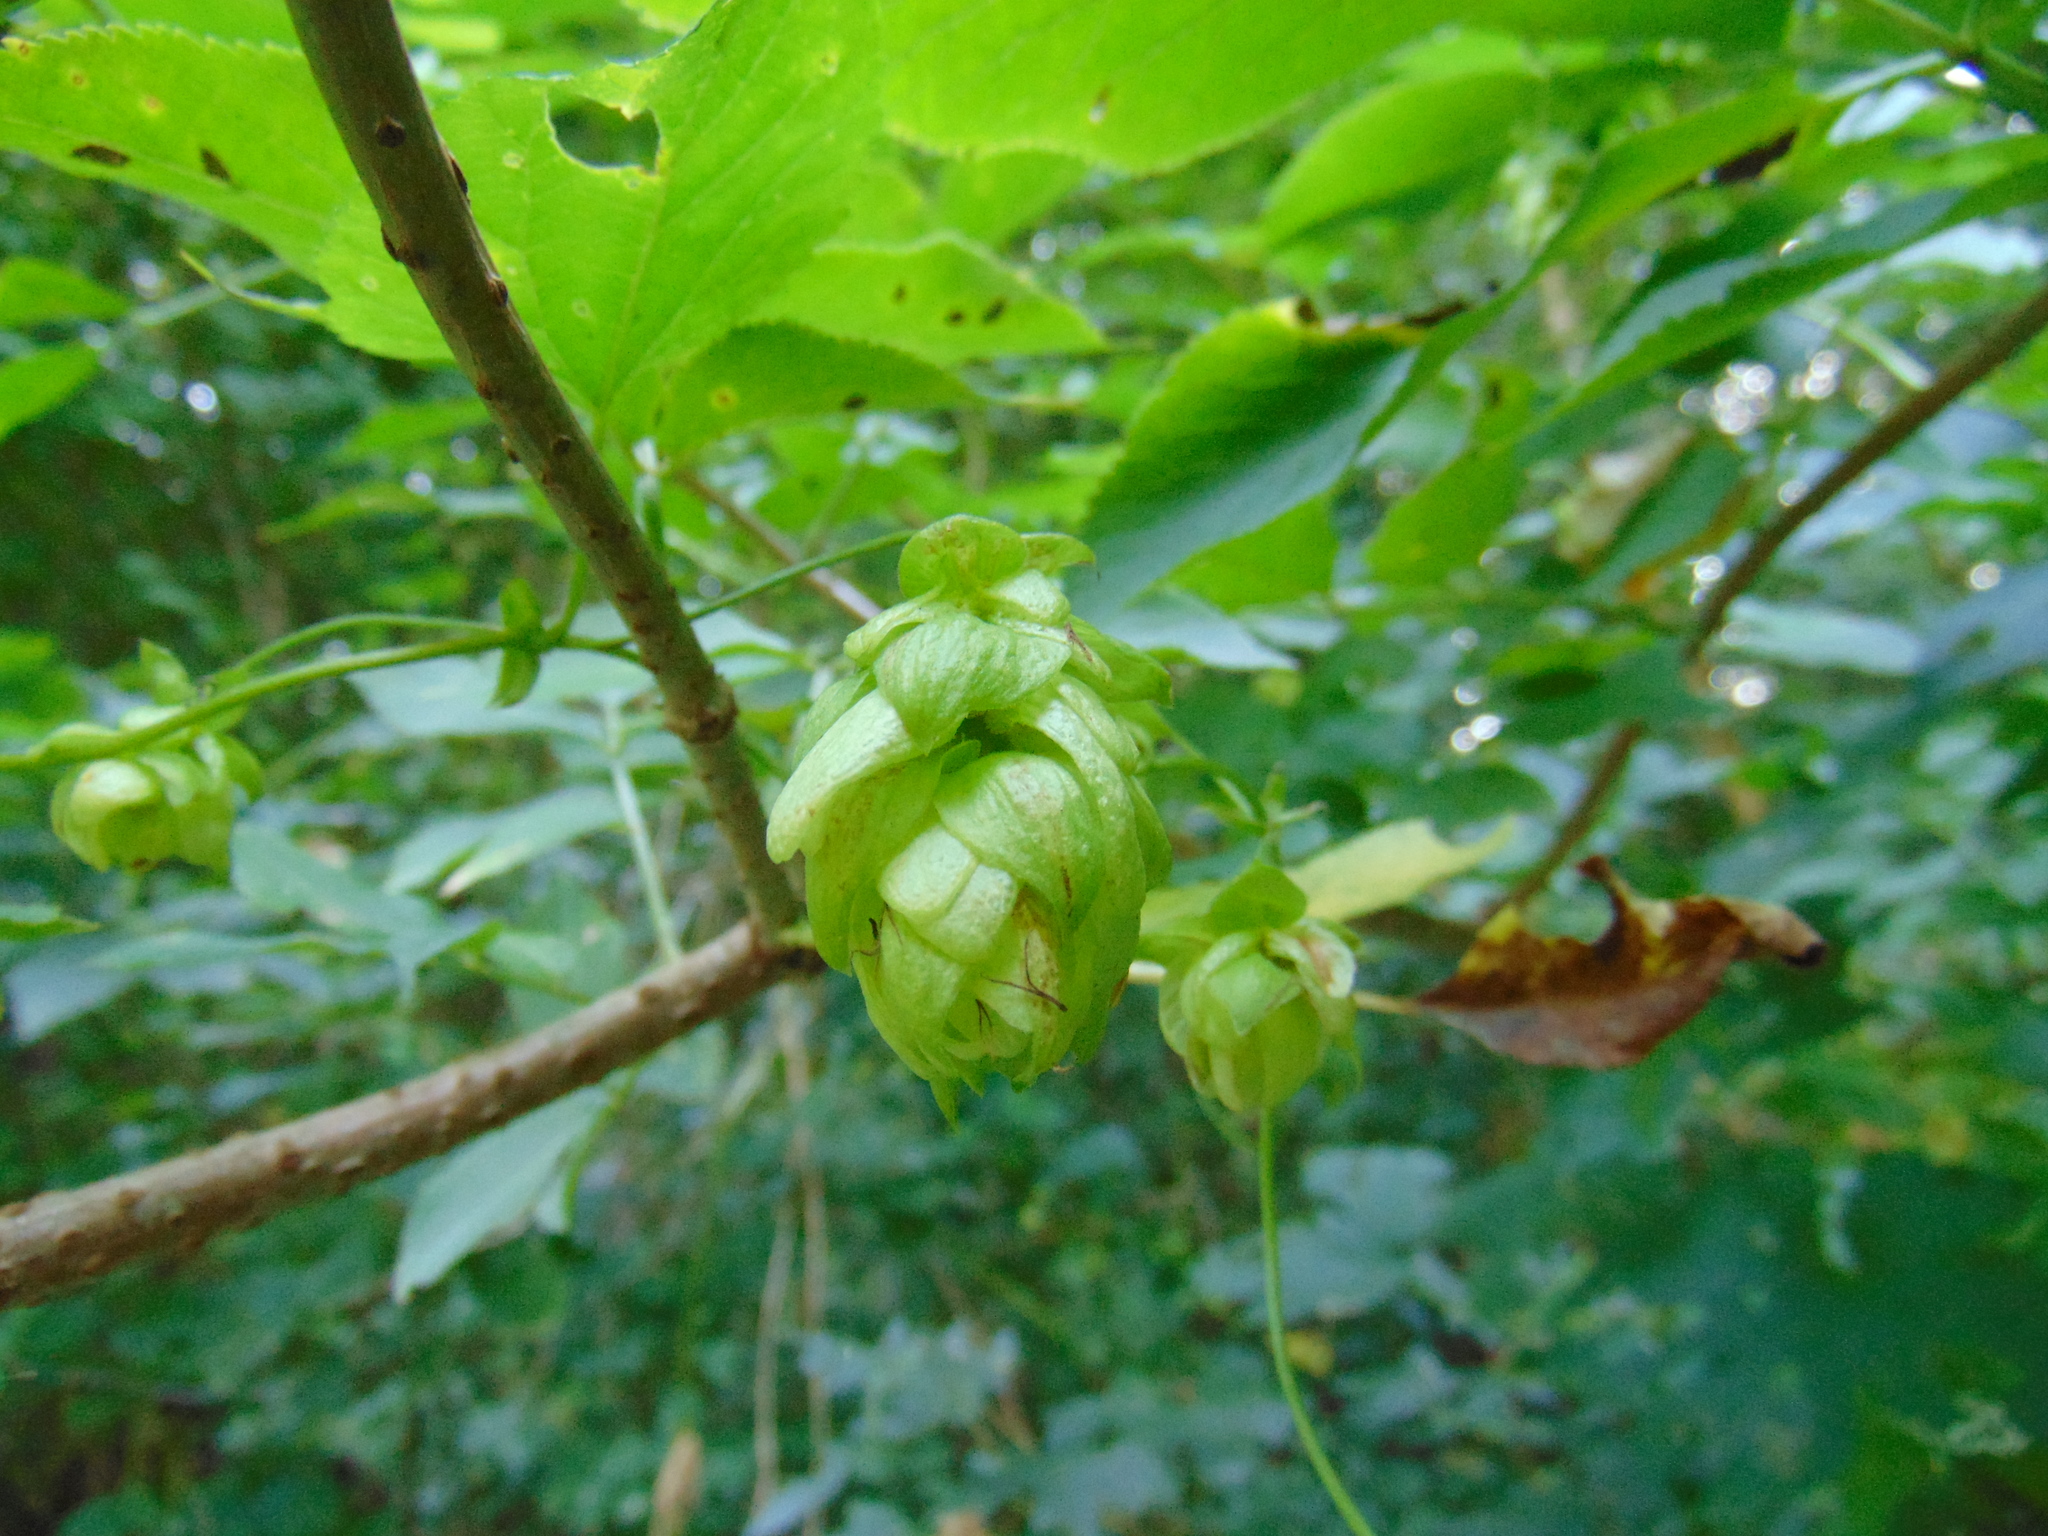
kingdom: Plantae
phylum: Tracheophyta
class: Magnoliopsida
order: Rosales
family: Cannabaceae
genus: Humulus
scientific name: Humulus lupulus
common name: Hop
